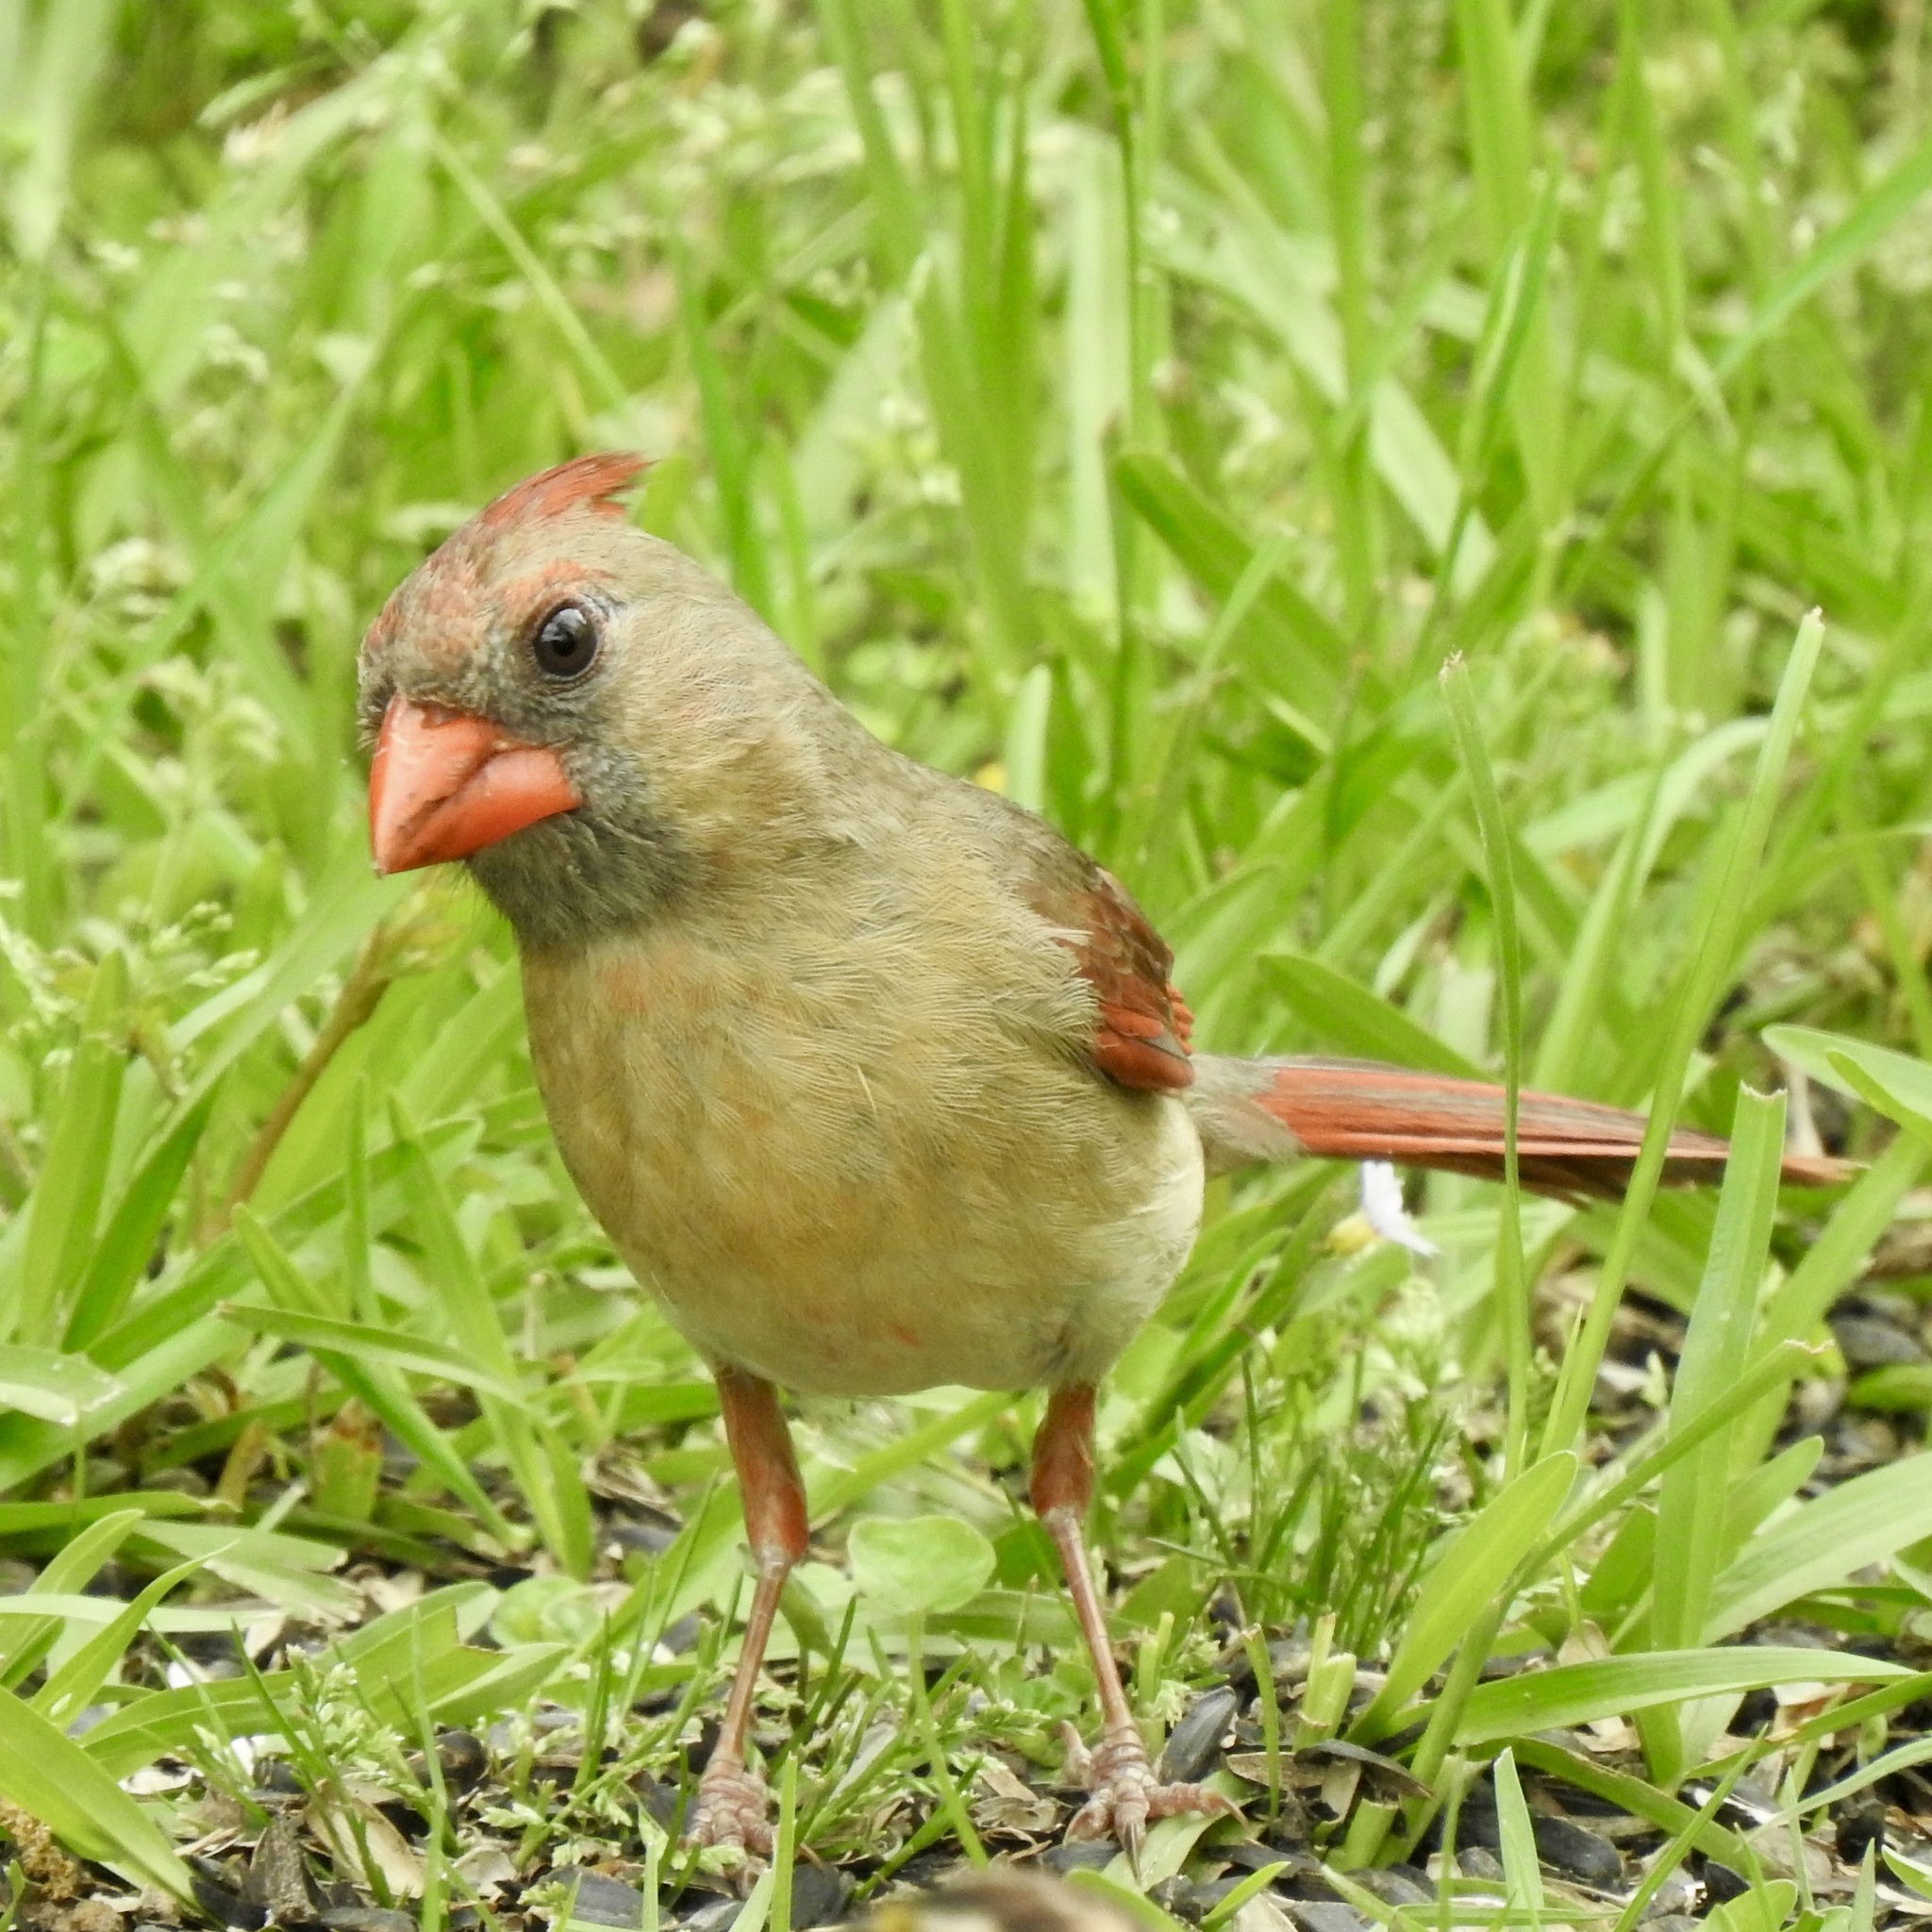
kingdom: Animalia
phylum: Chordata
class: Aves
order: Passeriformes
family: Cardinalidae
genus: Cardinalis
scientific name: Cardinalis cardinalis
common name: Northern cardinal
